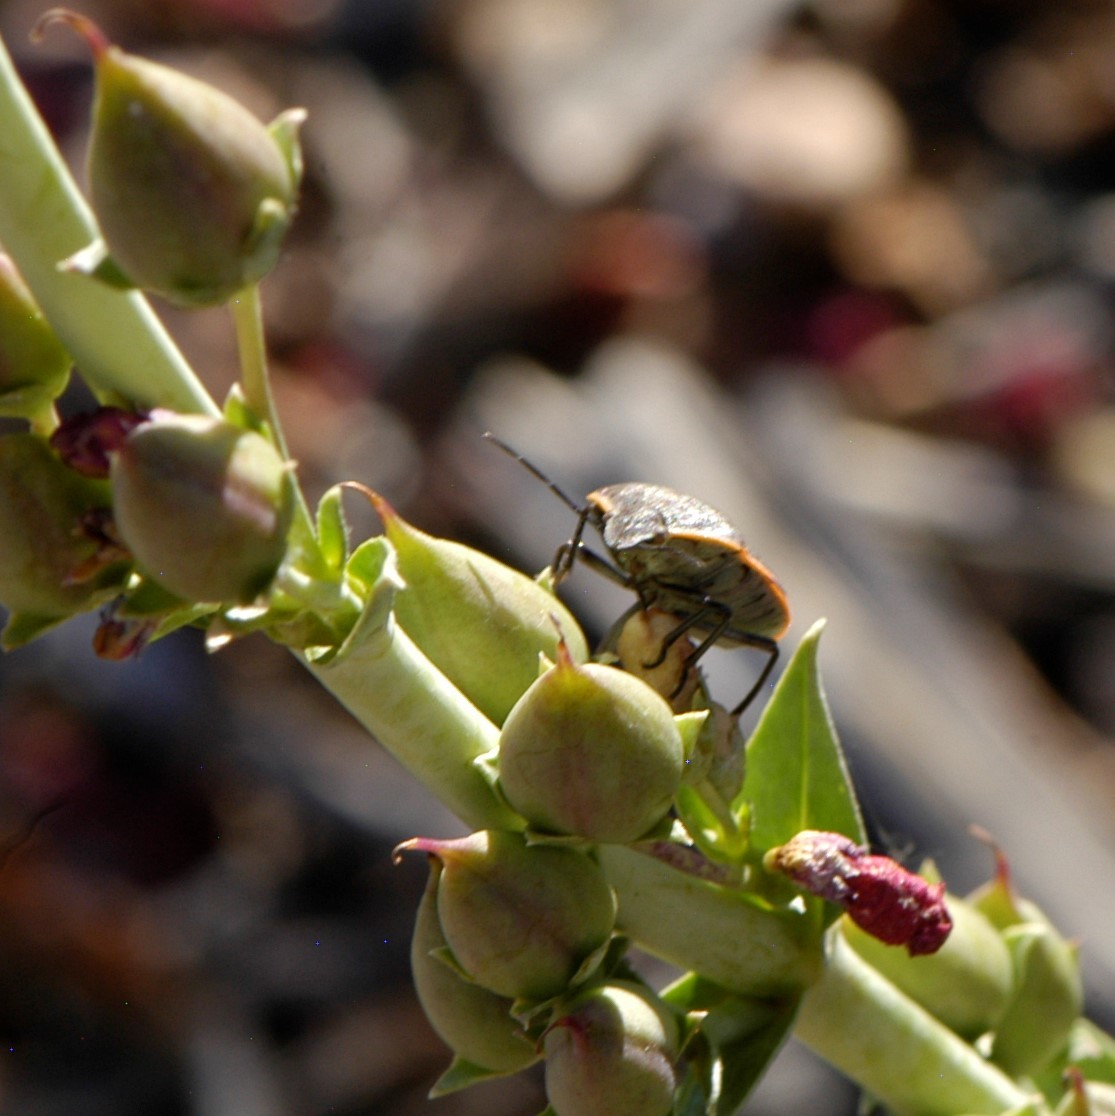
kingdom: Animalia
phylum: Arthropoda
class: Insecta
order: Hemiptera
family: Pentatomidae
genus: Chlorochroa
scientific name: Chlorochroa ligata
